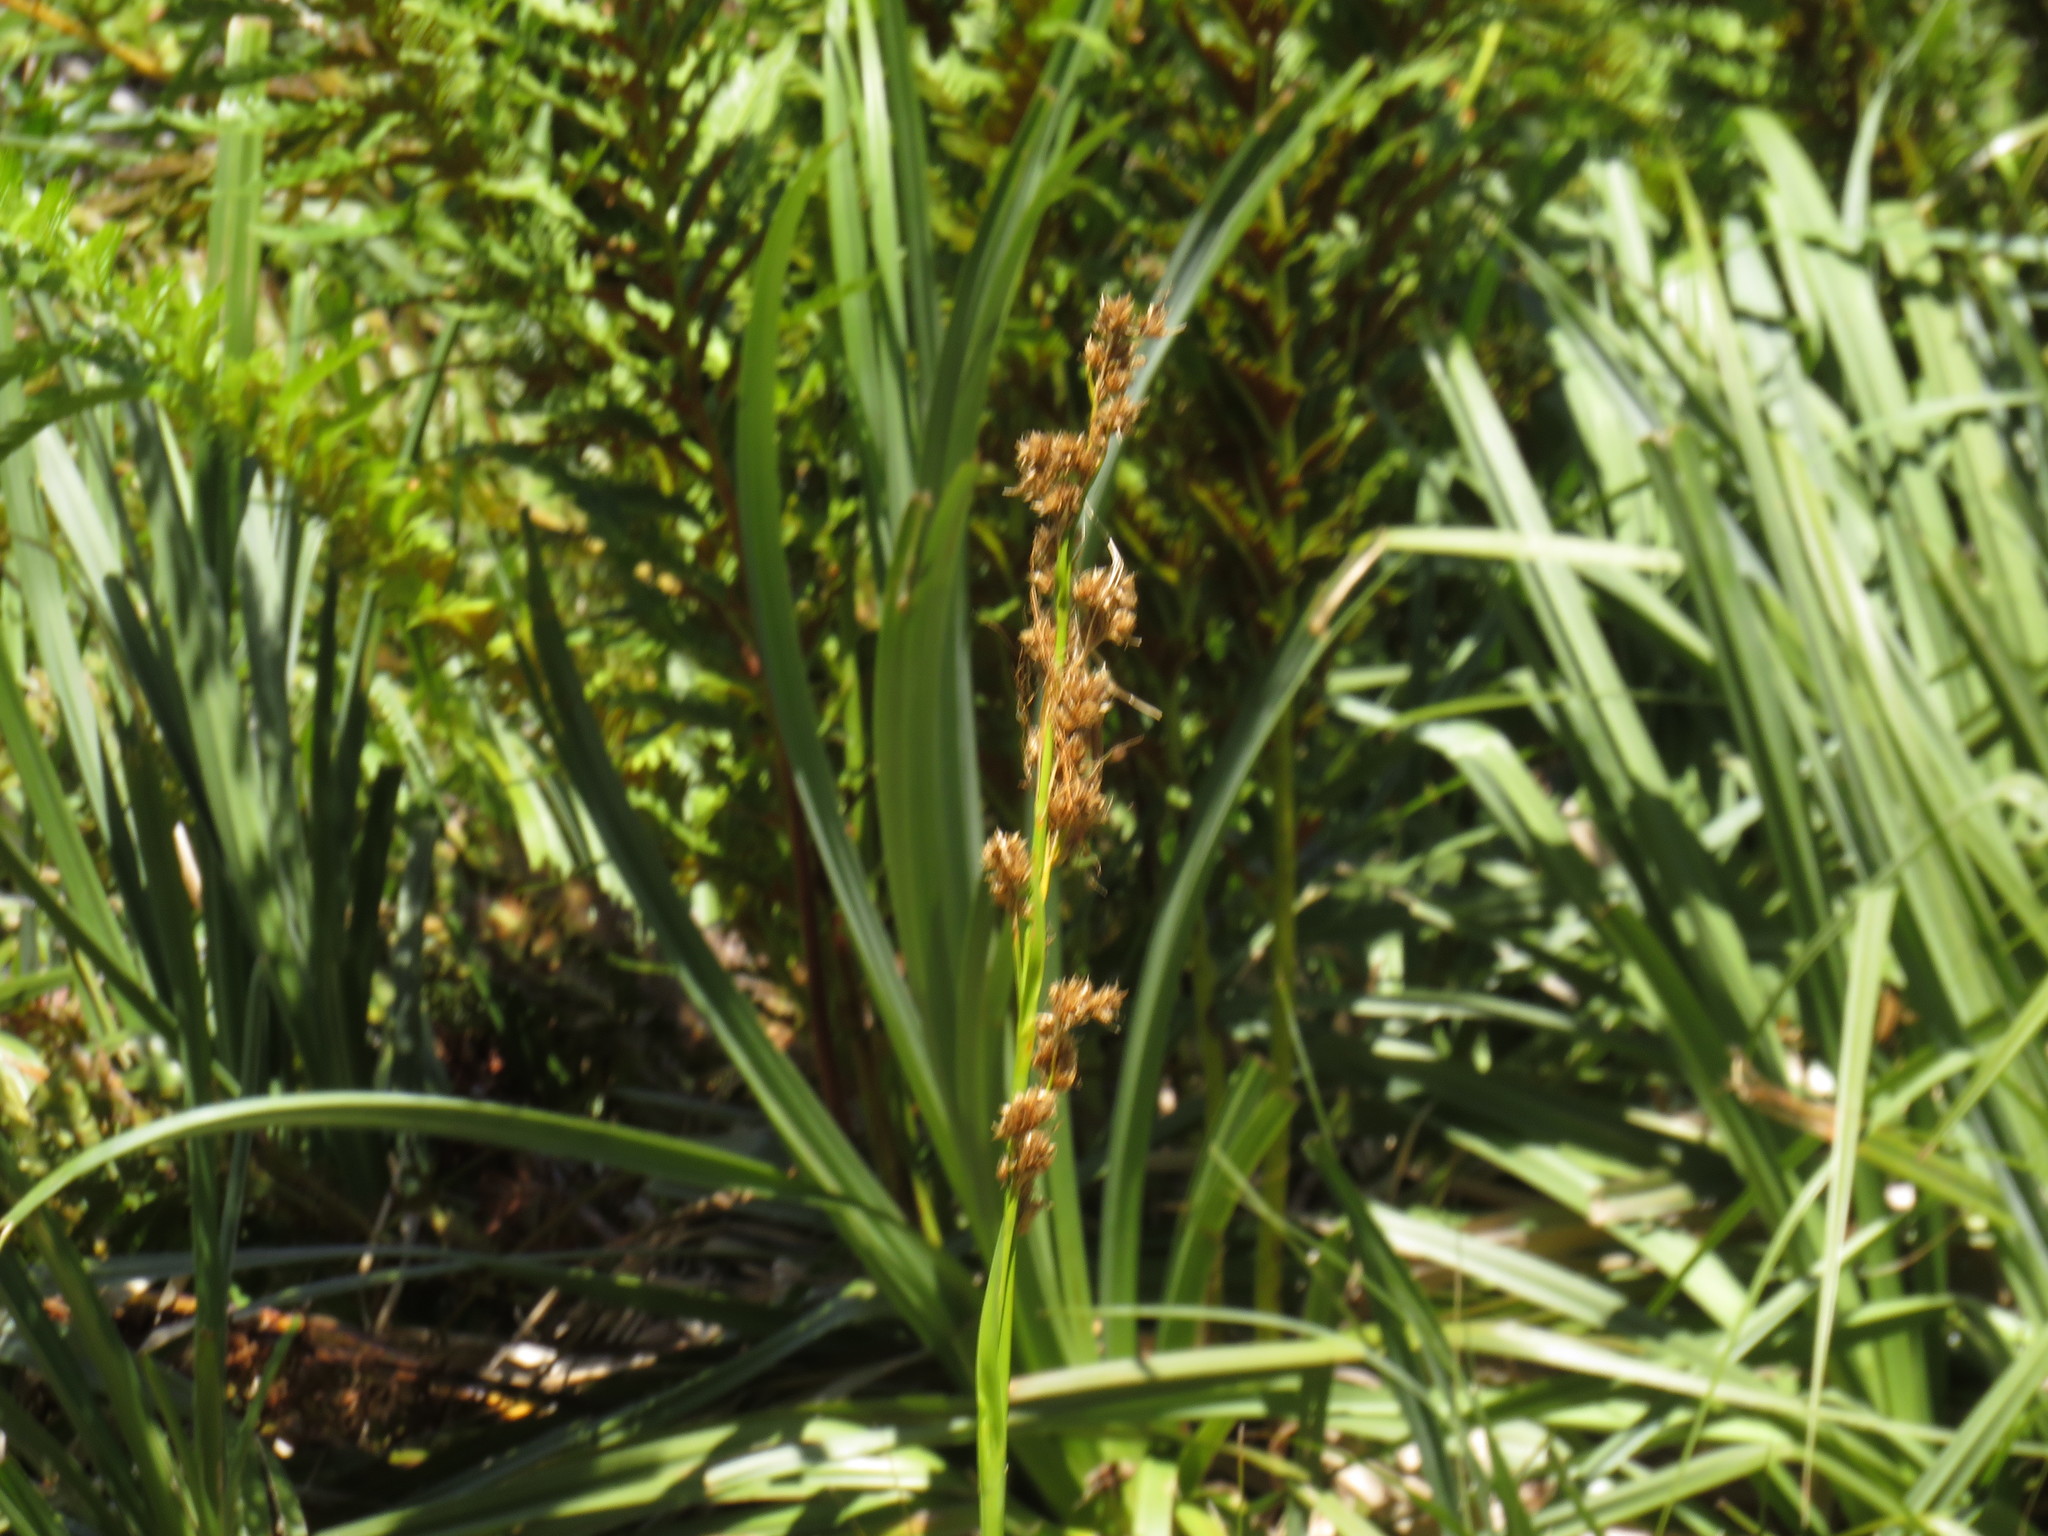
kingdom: Plantae
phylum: Tracheophyta
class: Liliopsida
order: Poales
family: Cyperaceae
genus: Carpha
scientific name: Carpha glomerata
